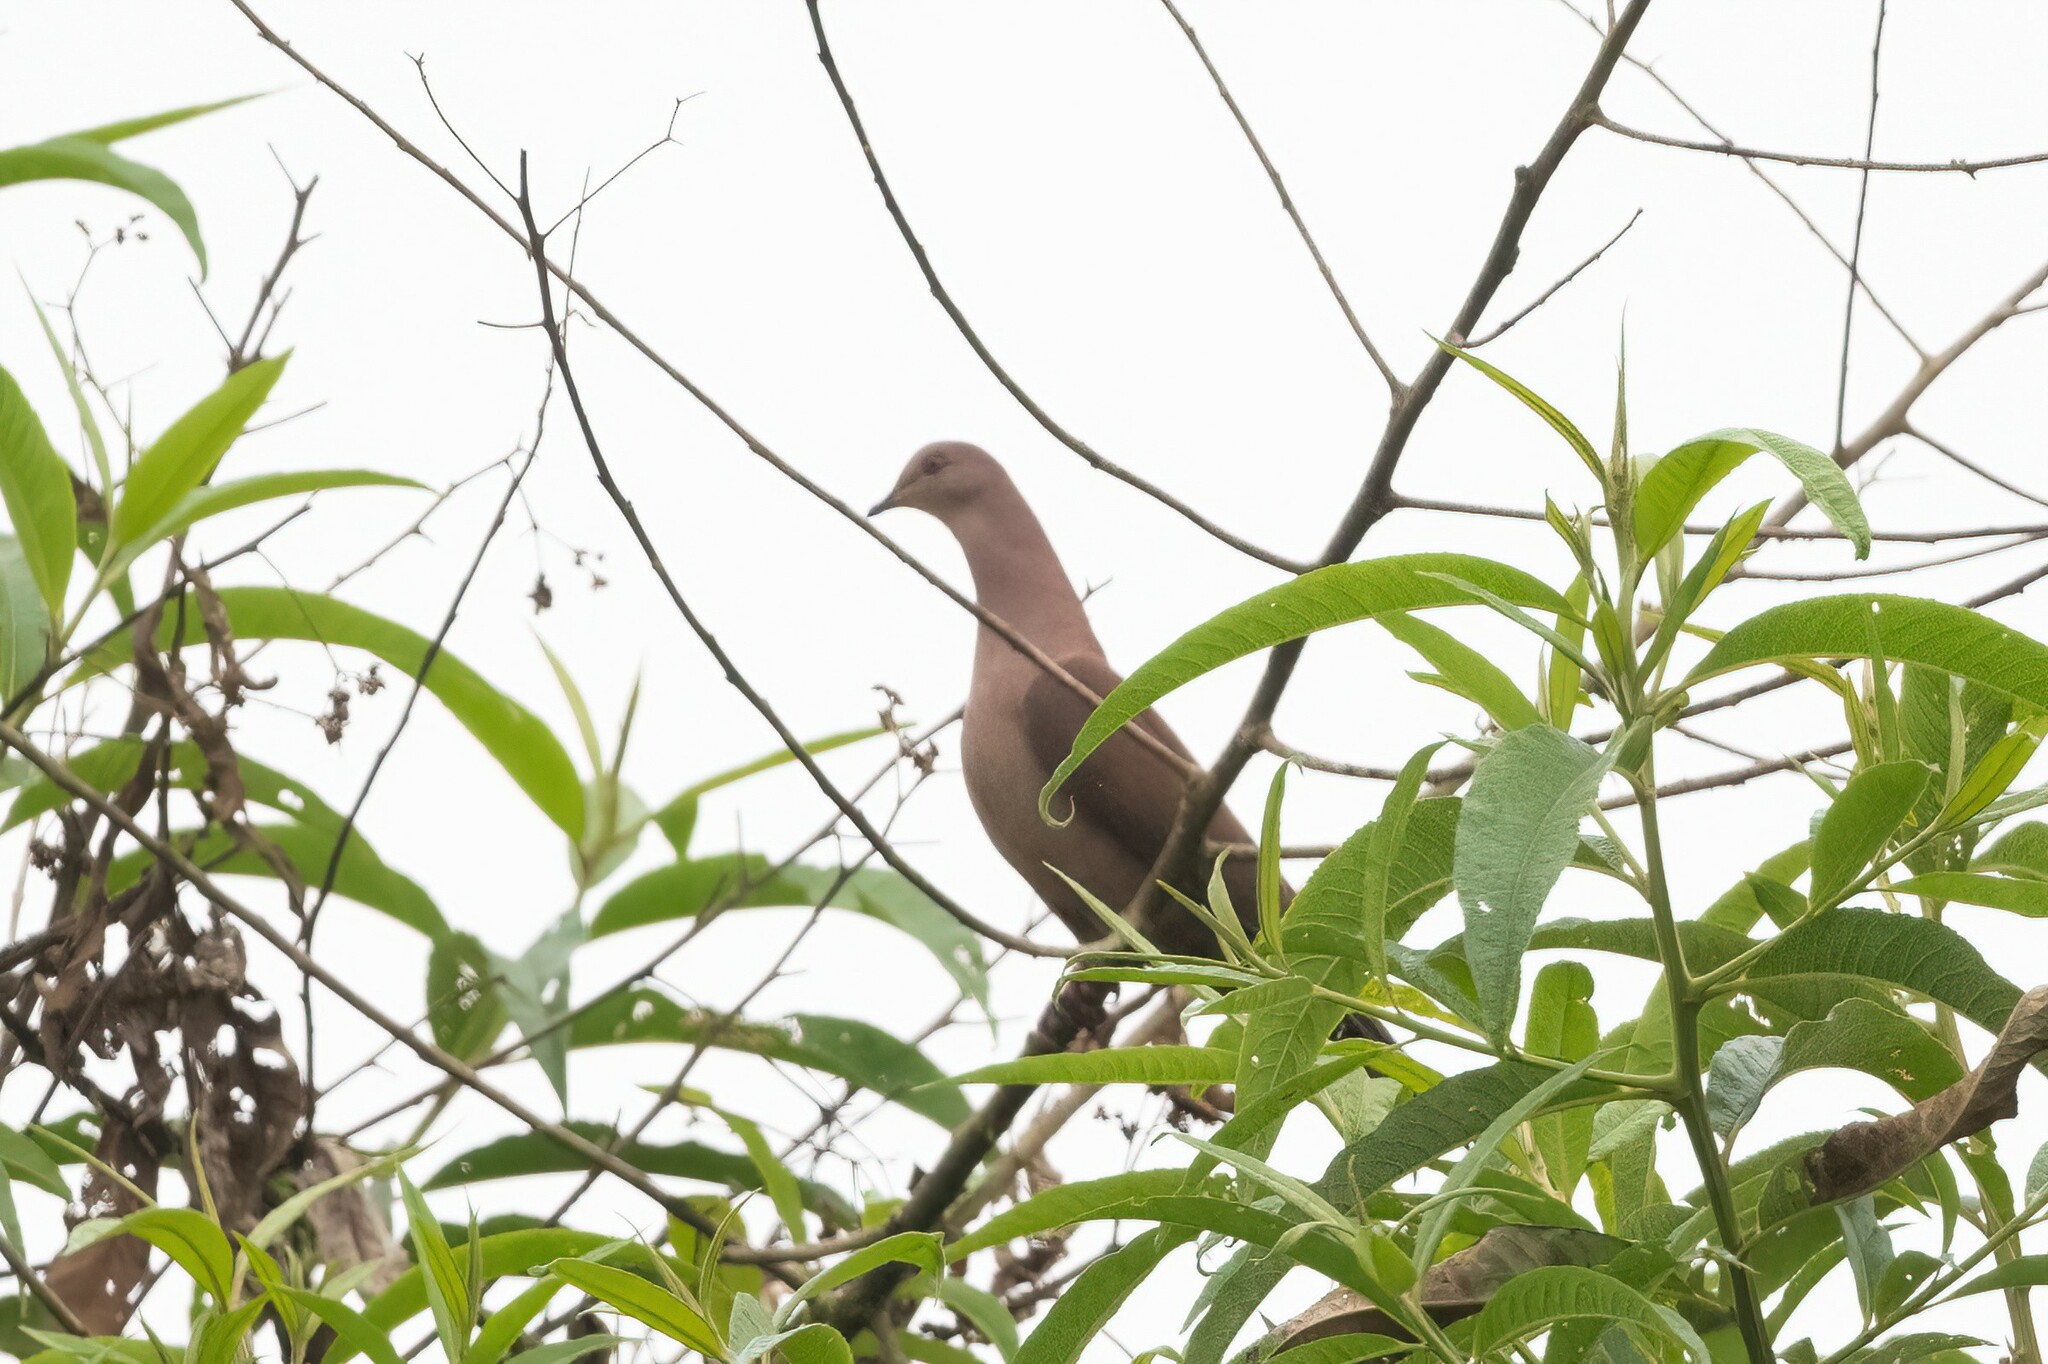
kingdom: Animalia
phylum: Chordata
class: Aves
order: Columbiformes
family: Columbidae
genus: Patagioenas
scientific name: Patagioenas subvinacea
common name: Ruddy pigeon
